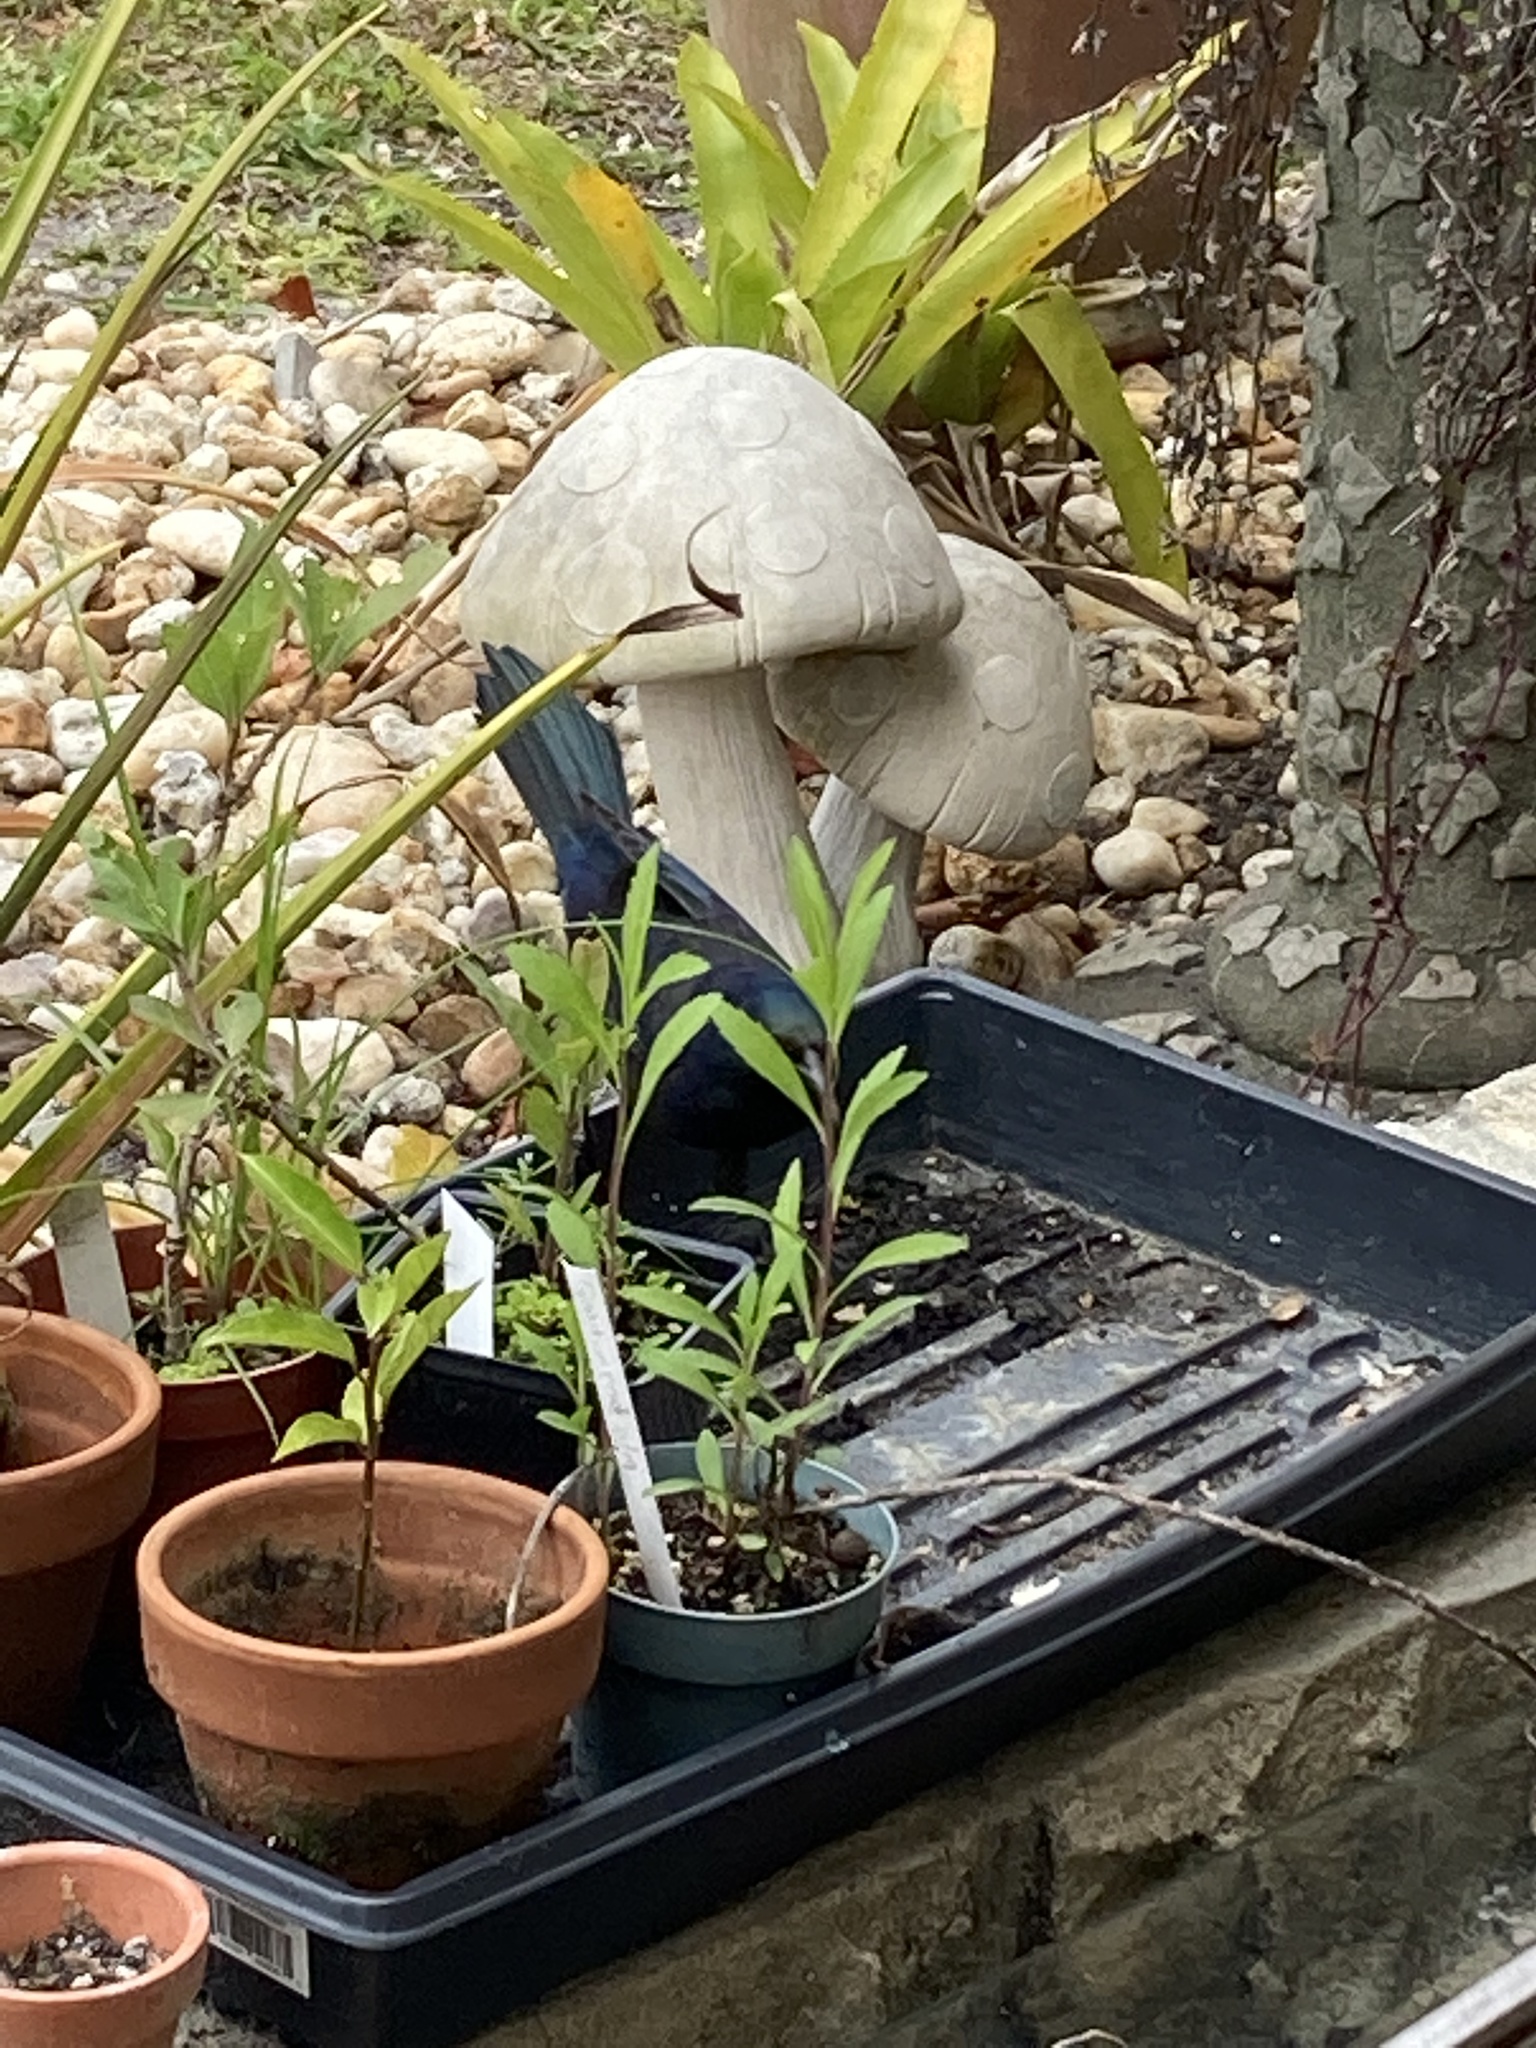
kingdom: Animalia
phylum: Chordata
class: Aves
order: Passeriformes
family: Icteridae
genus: Quiscalus
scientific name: Quiscalus quiscula
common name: Common grackle
